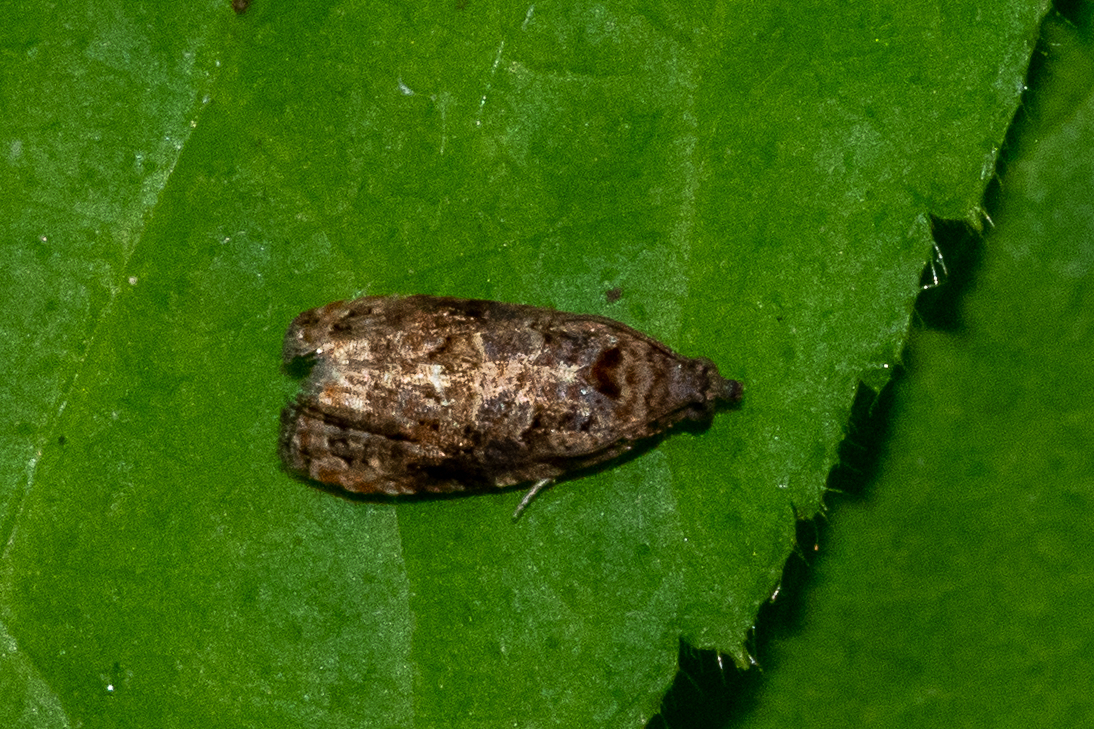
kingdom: Animalia
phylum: Arthropoda
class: Insecta
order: Lepidoptera
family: Tortricidae
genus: Endothenia
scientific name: Endothenia hebesana
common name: Verbena bud moth
